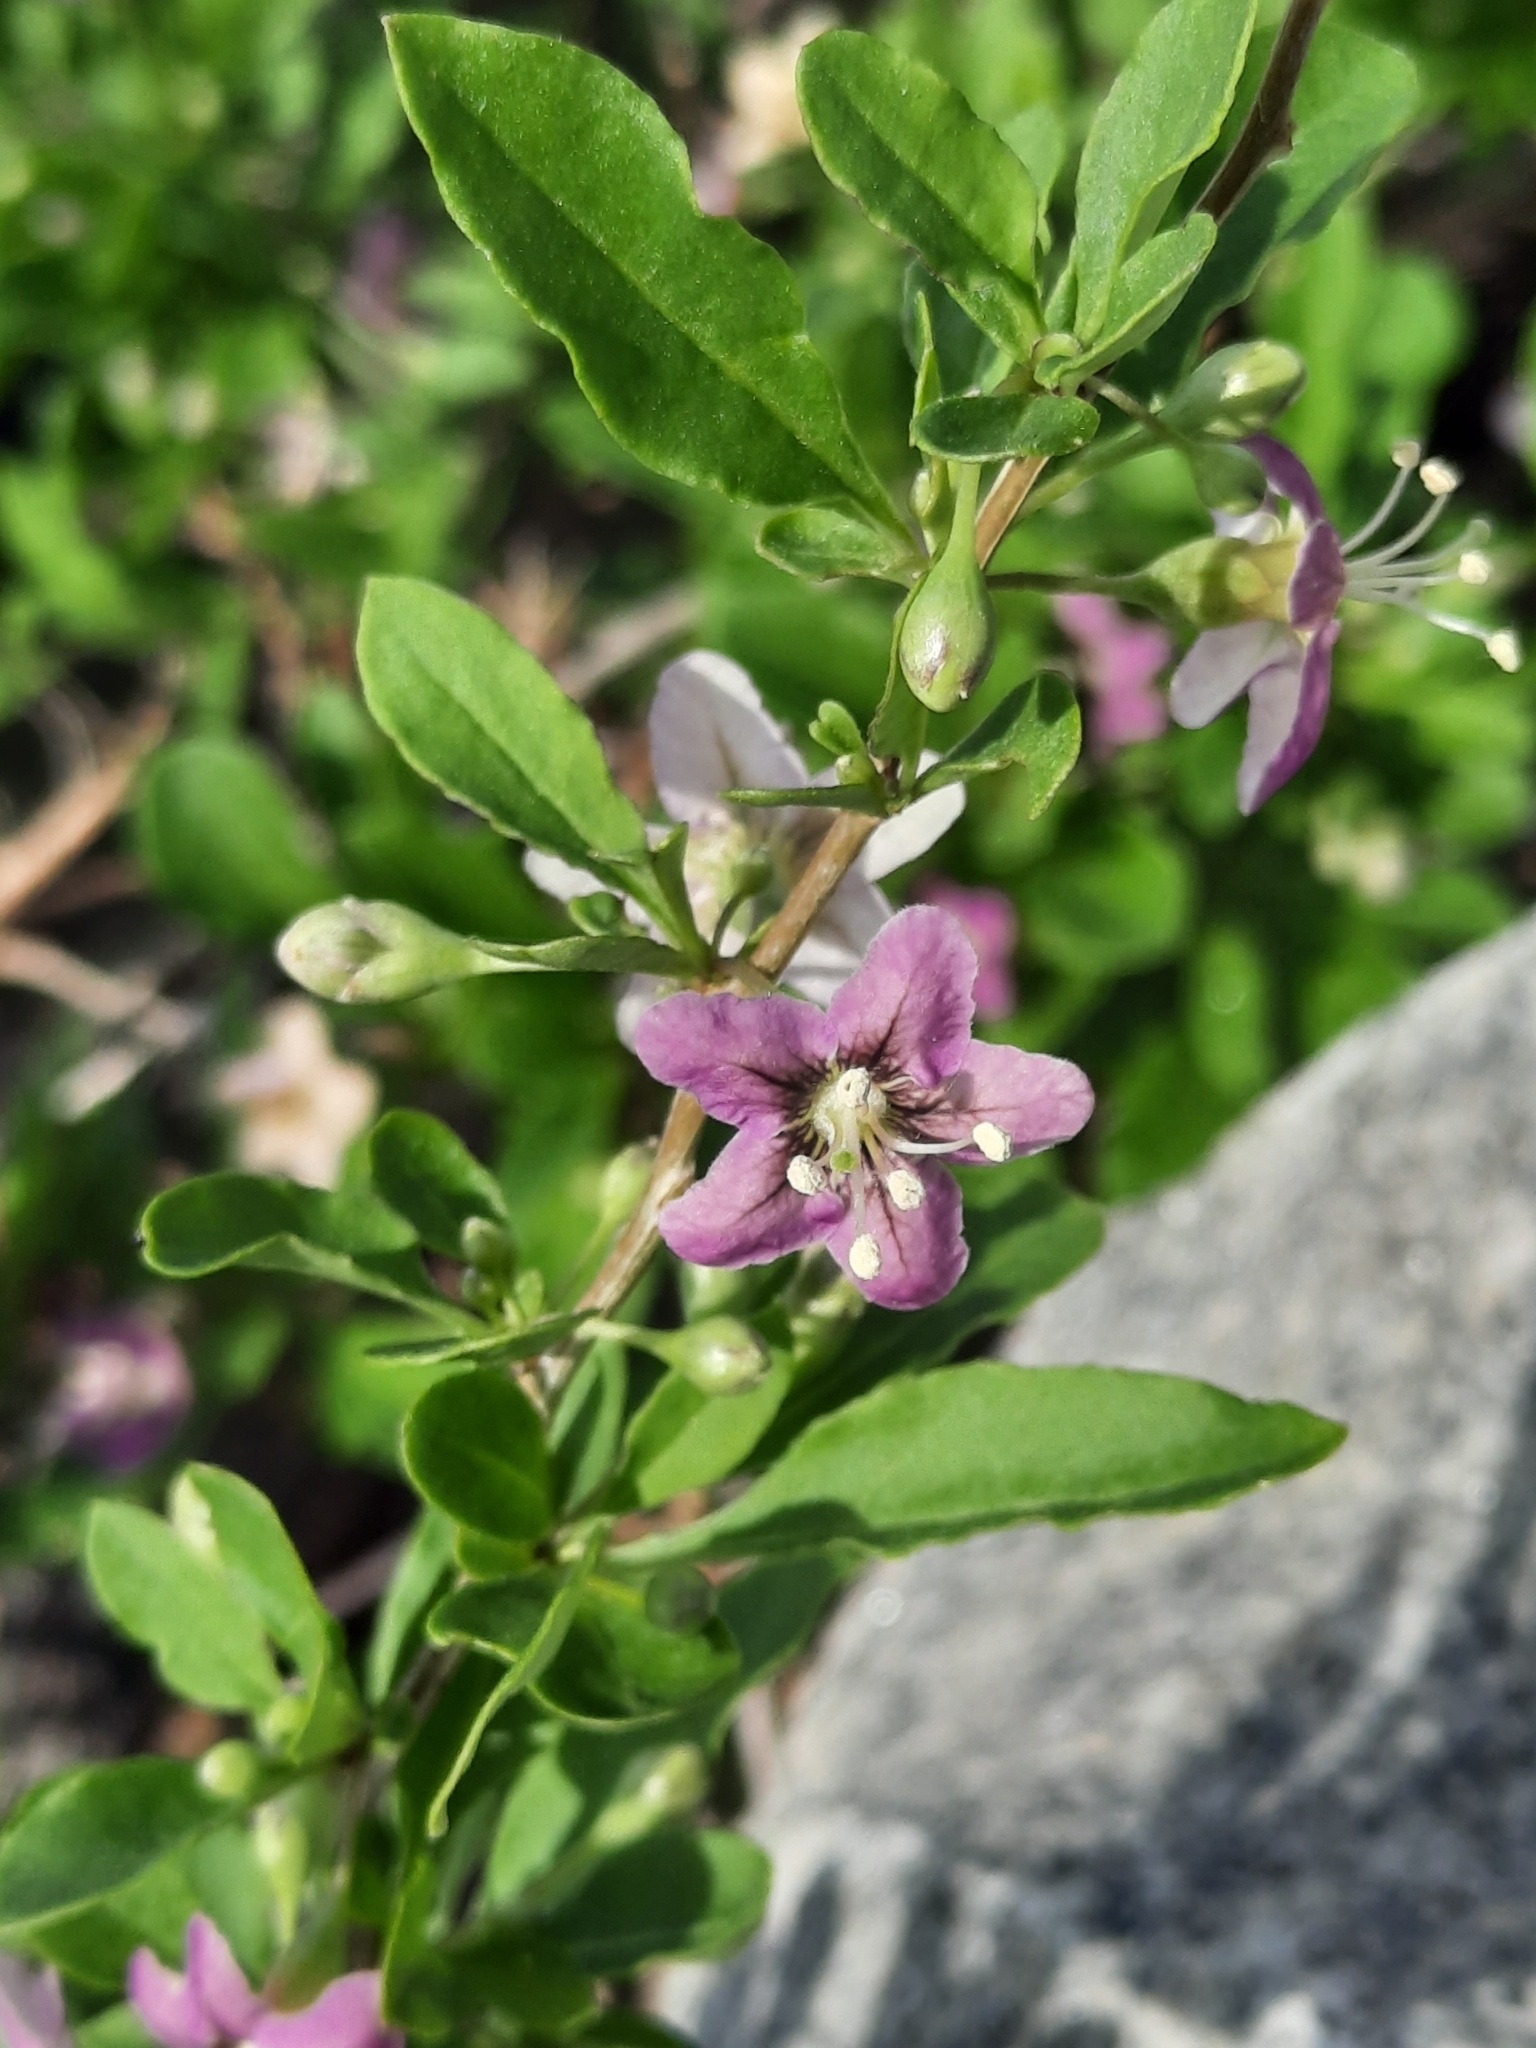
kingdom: Plantae
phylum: Tracheophyta
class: Magnoliopsida
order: Solanales
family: Solanaceae
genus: Lycium
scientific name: Lycium barbarum
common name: Duke of argyll's teaplant
